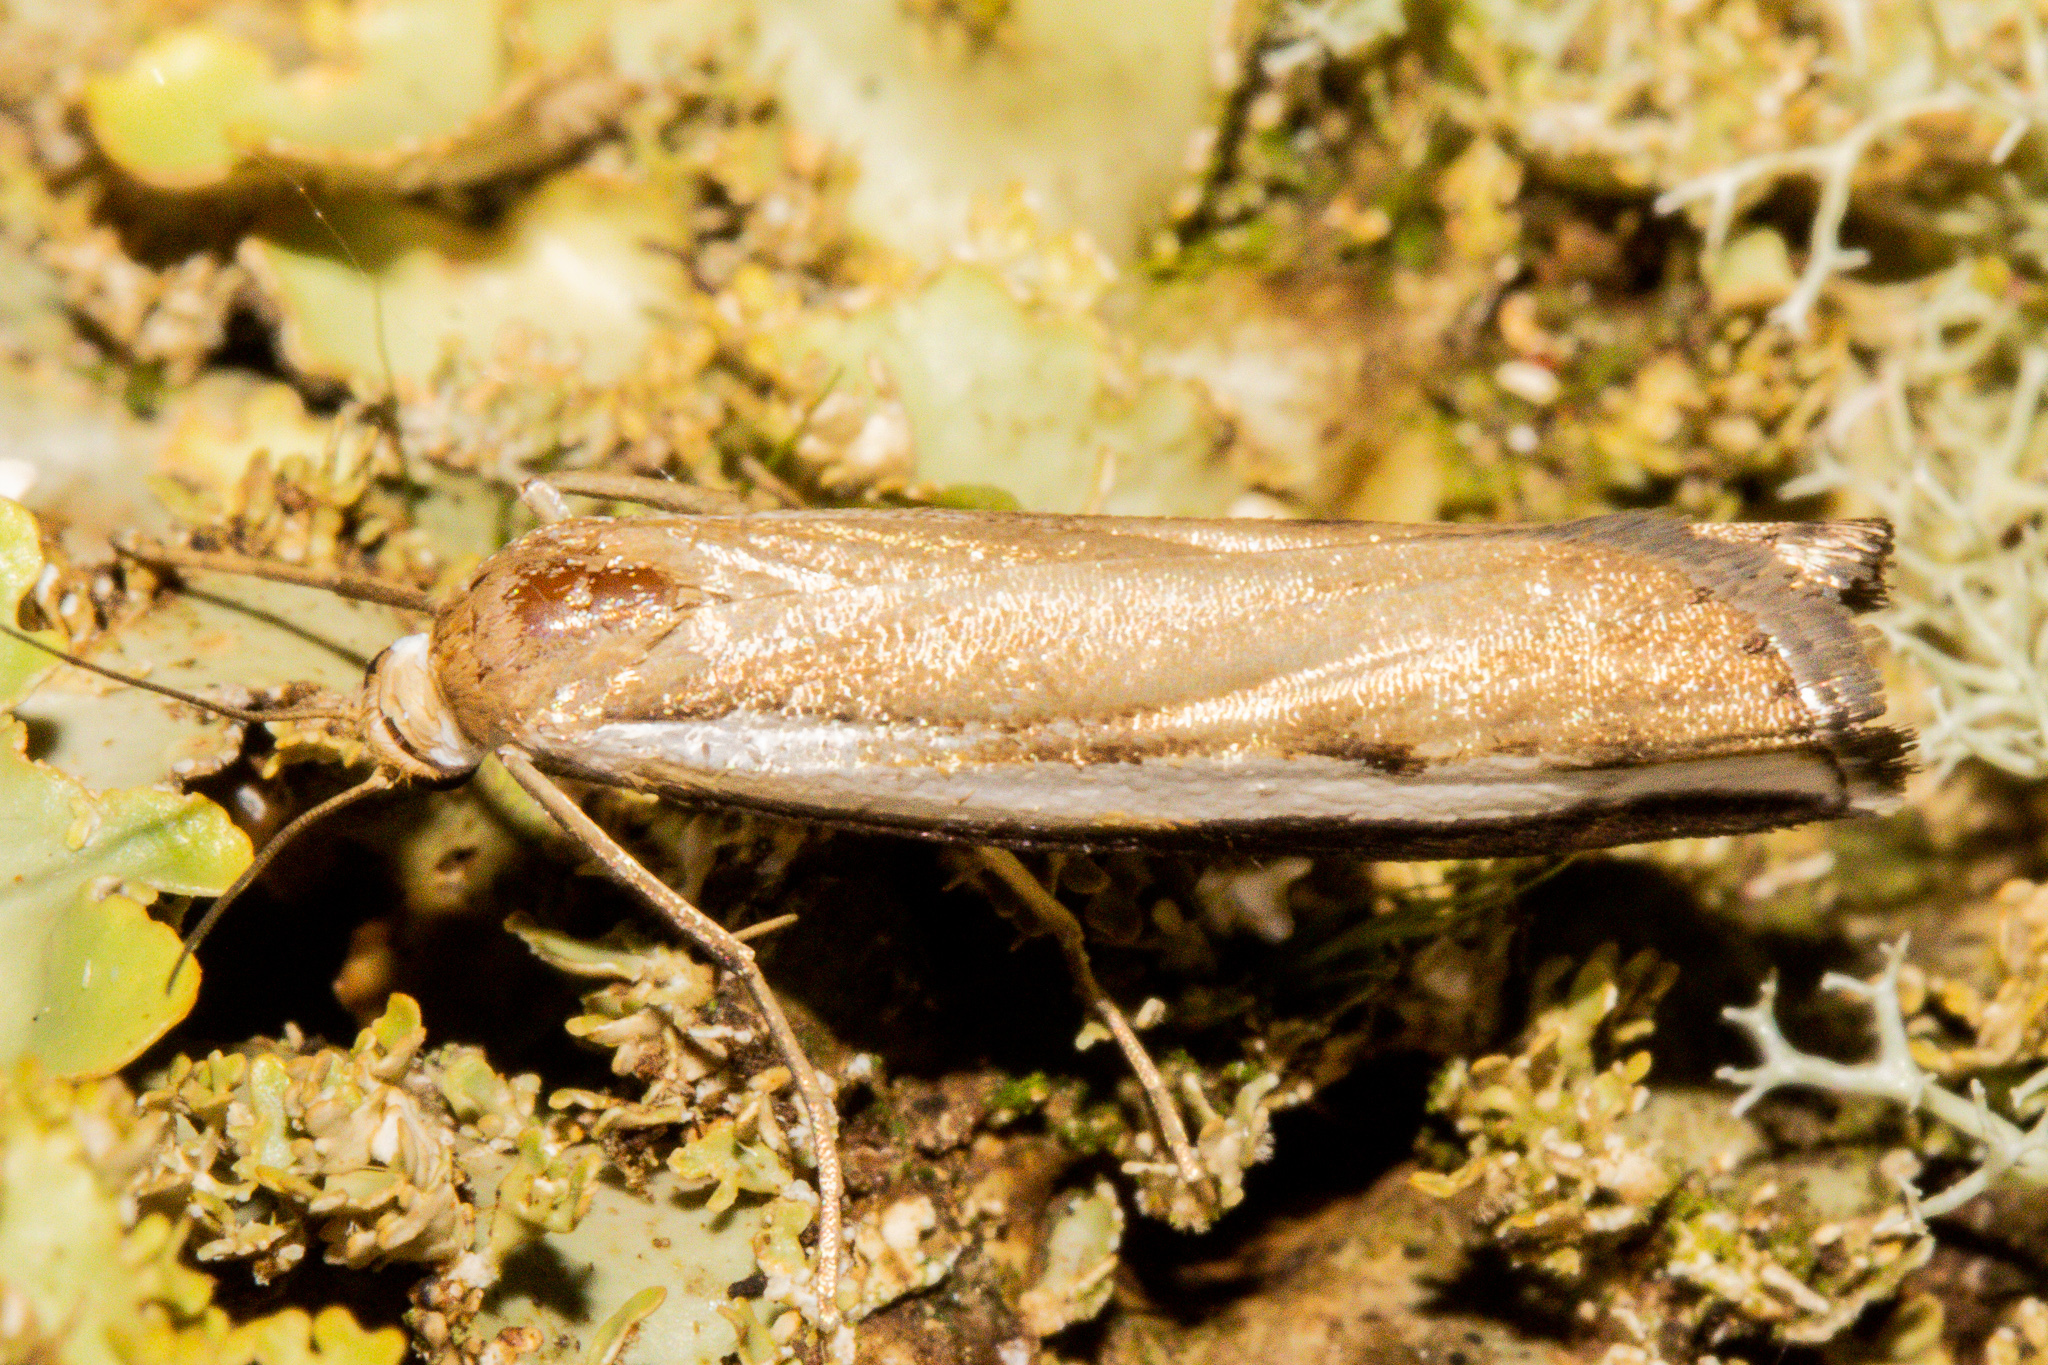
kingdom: Animalia
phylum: Arthropoda
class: Insecta
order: Lepidoptera
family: Crambidae
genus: Orocrambus
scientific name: Orocrambus flexuosellus
